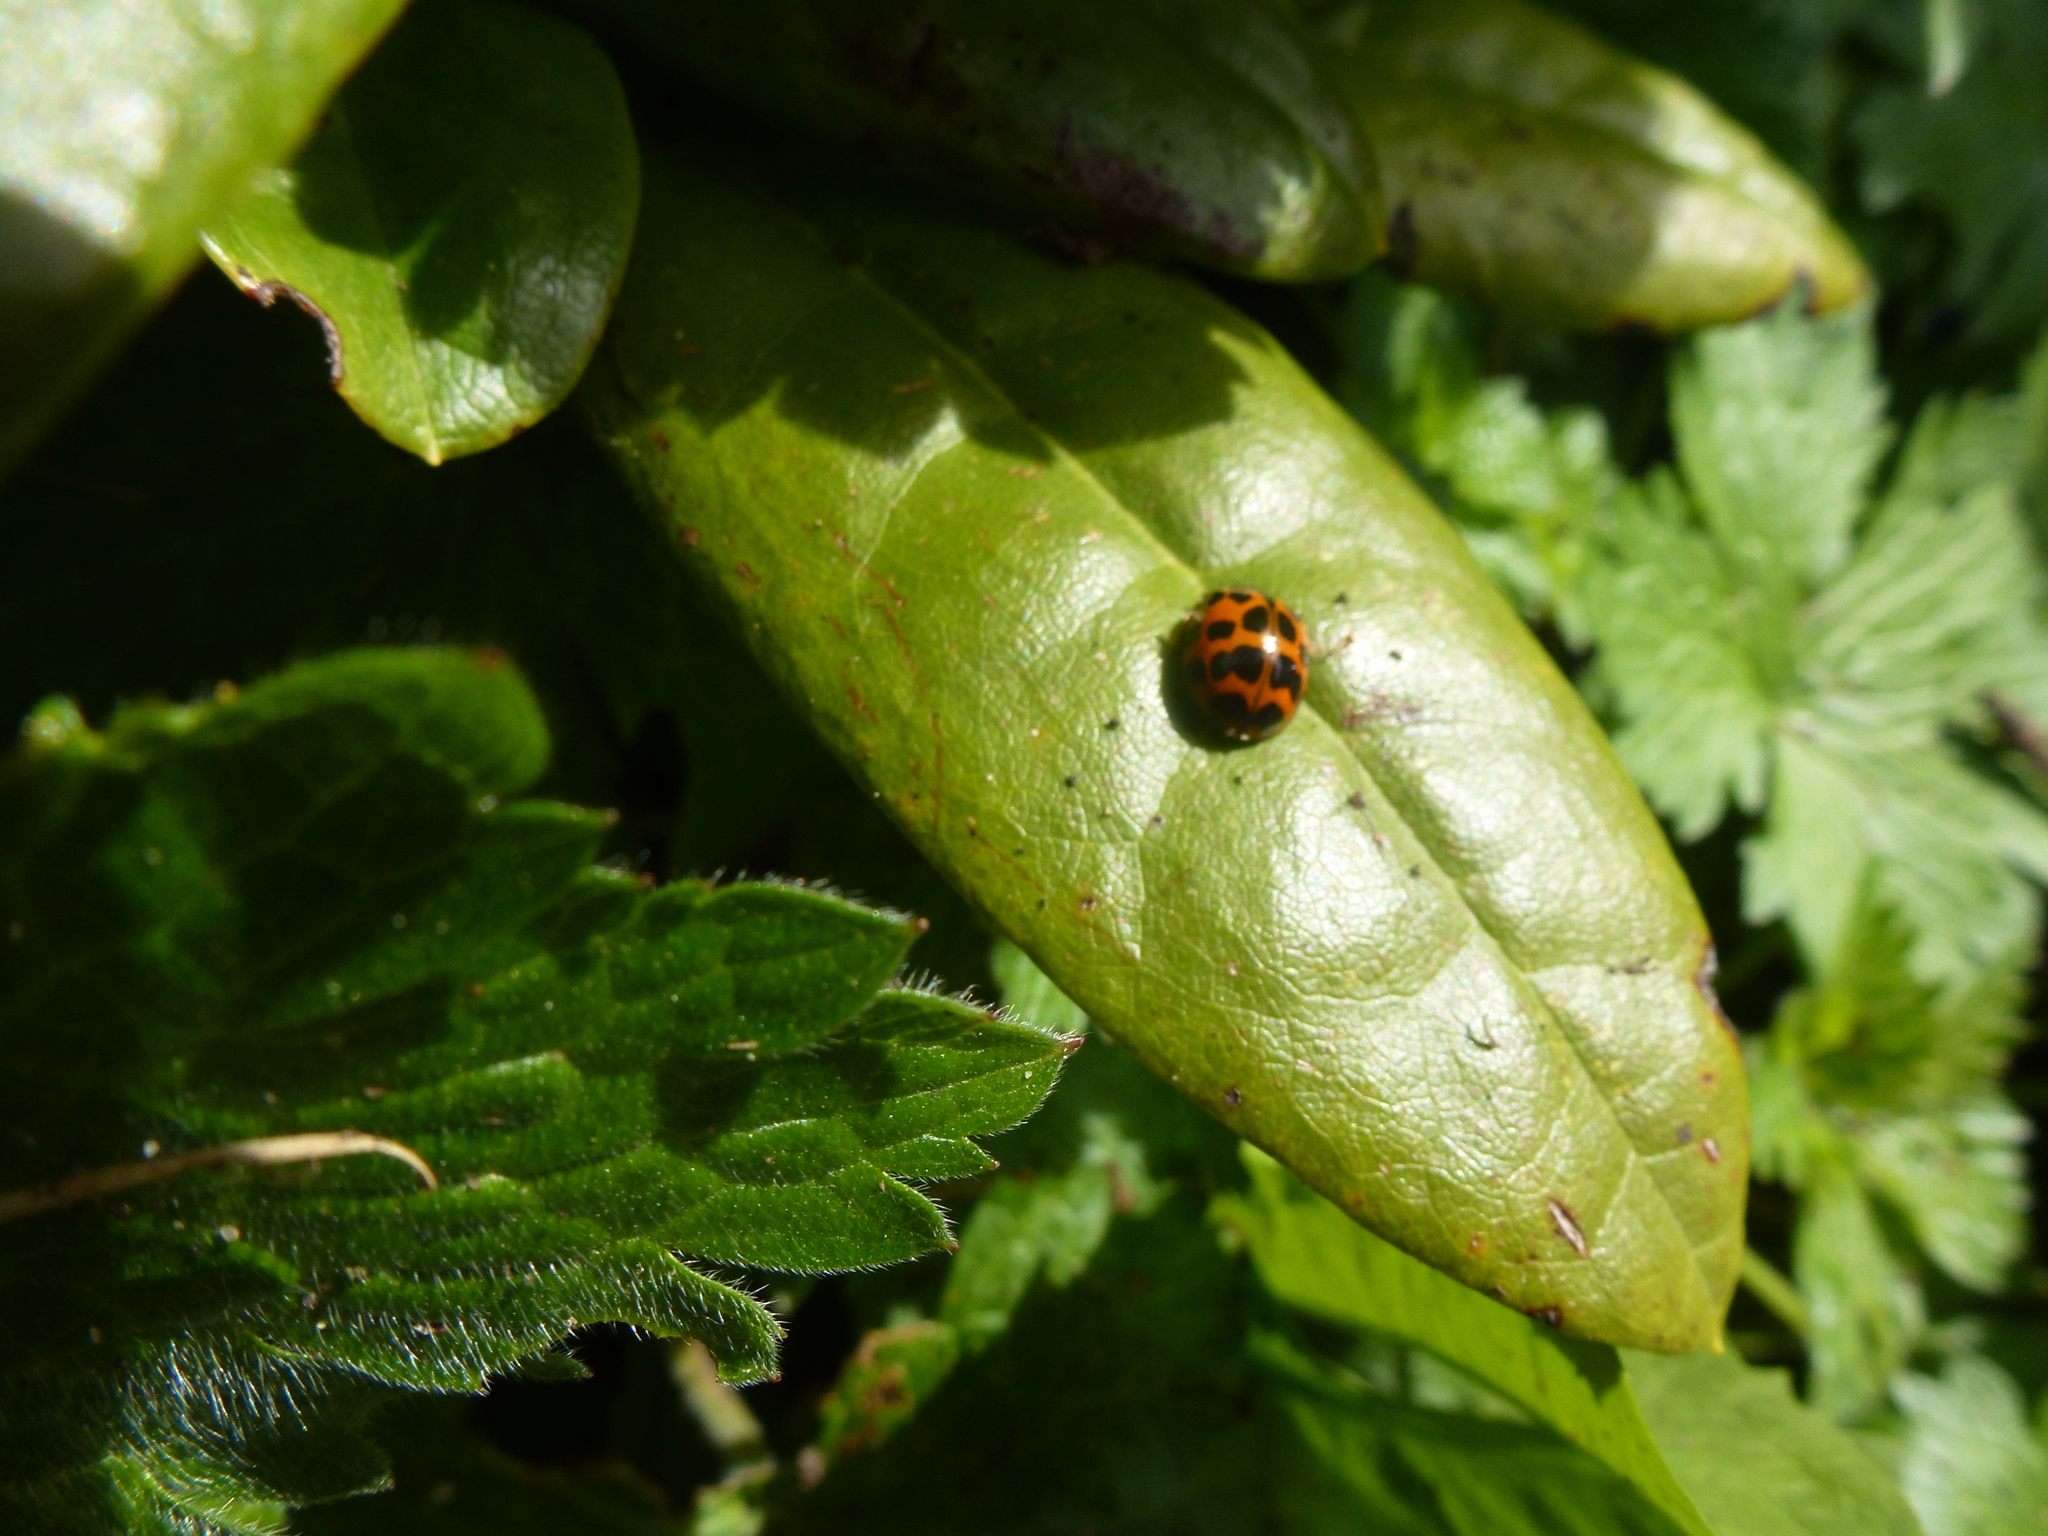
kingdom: Animalia
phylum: Arthropoda
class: Insecta
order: Coleoptera
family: Coccinellidae
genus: Harmonia
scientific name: Harmonia axyridis
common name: Harlequin ladybird
